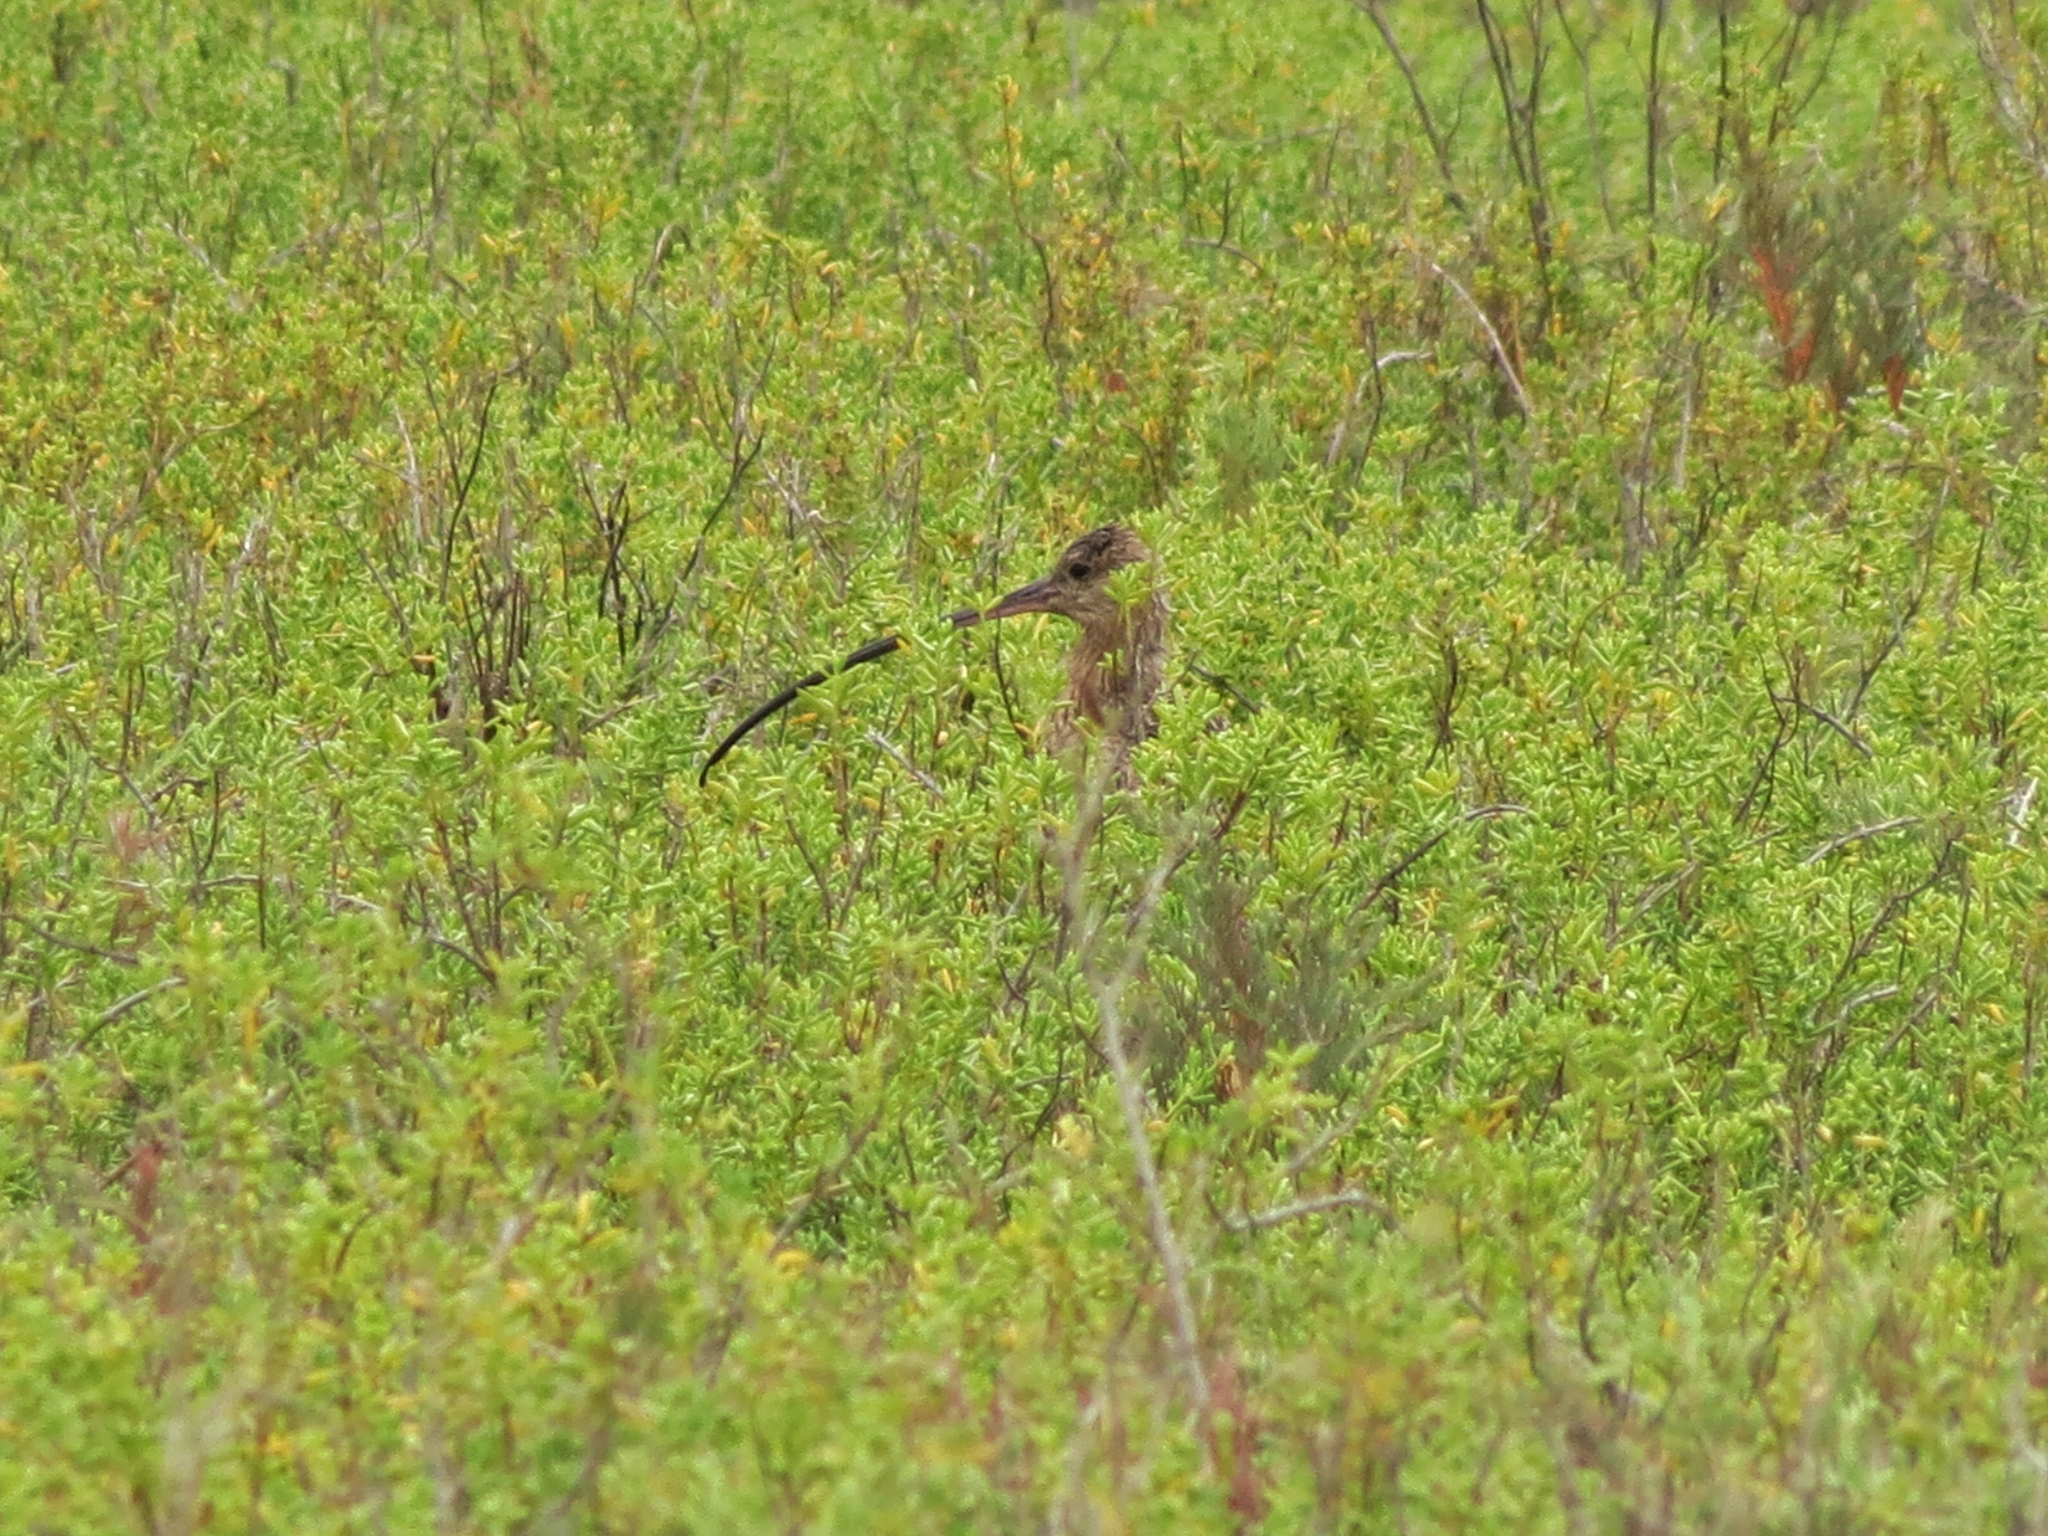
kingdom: Animalia
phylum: Chordata
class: Aves
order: Charadriiformes
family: Scolopacidae
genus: Numenius
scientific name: Numenius americanus
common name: Long-billed curlew
